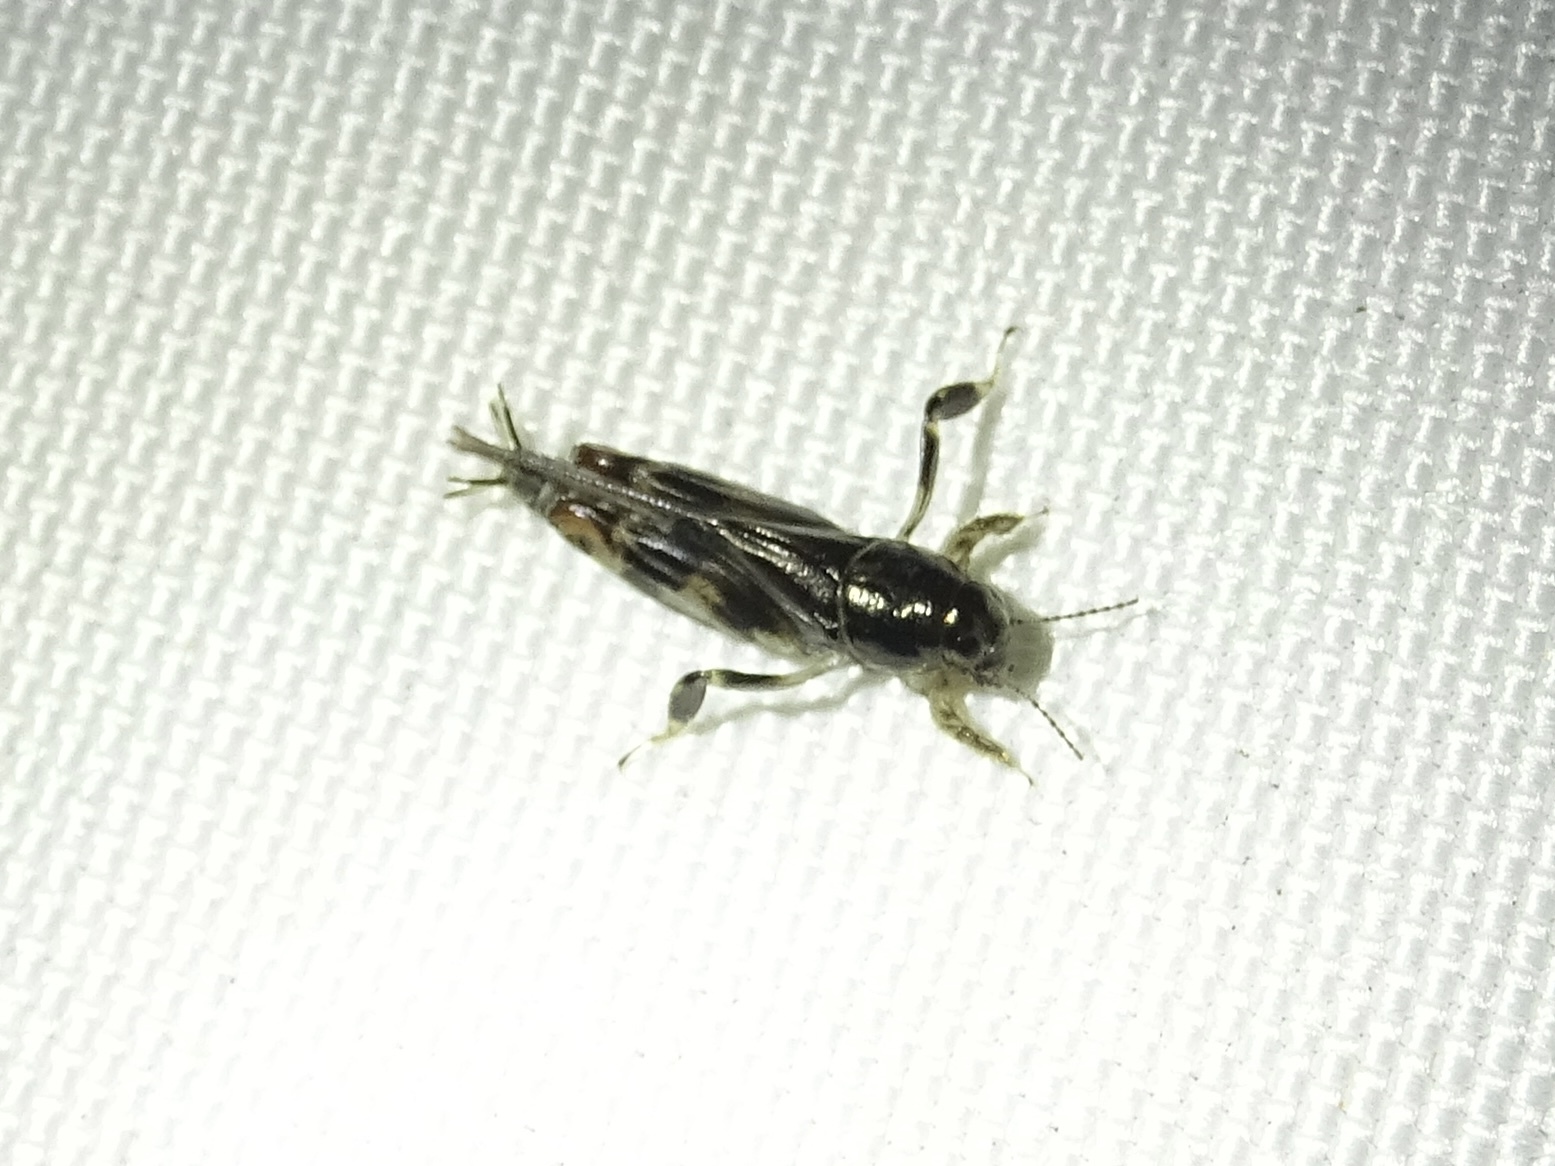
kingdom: Animalia
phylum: Arthropoda
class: Insecta
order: Orthoptera
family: Tridactylidae
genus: Neotridactylus
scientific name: Neotridactylus apicialis
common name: Larger pygmy locust
